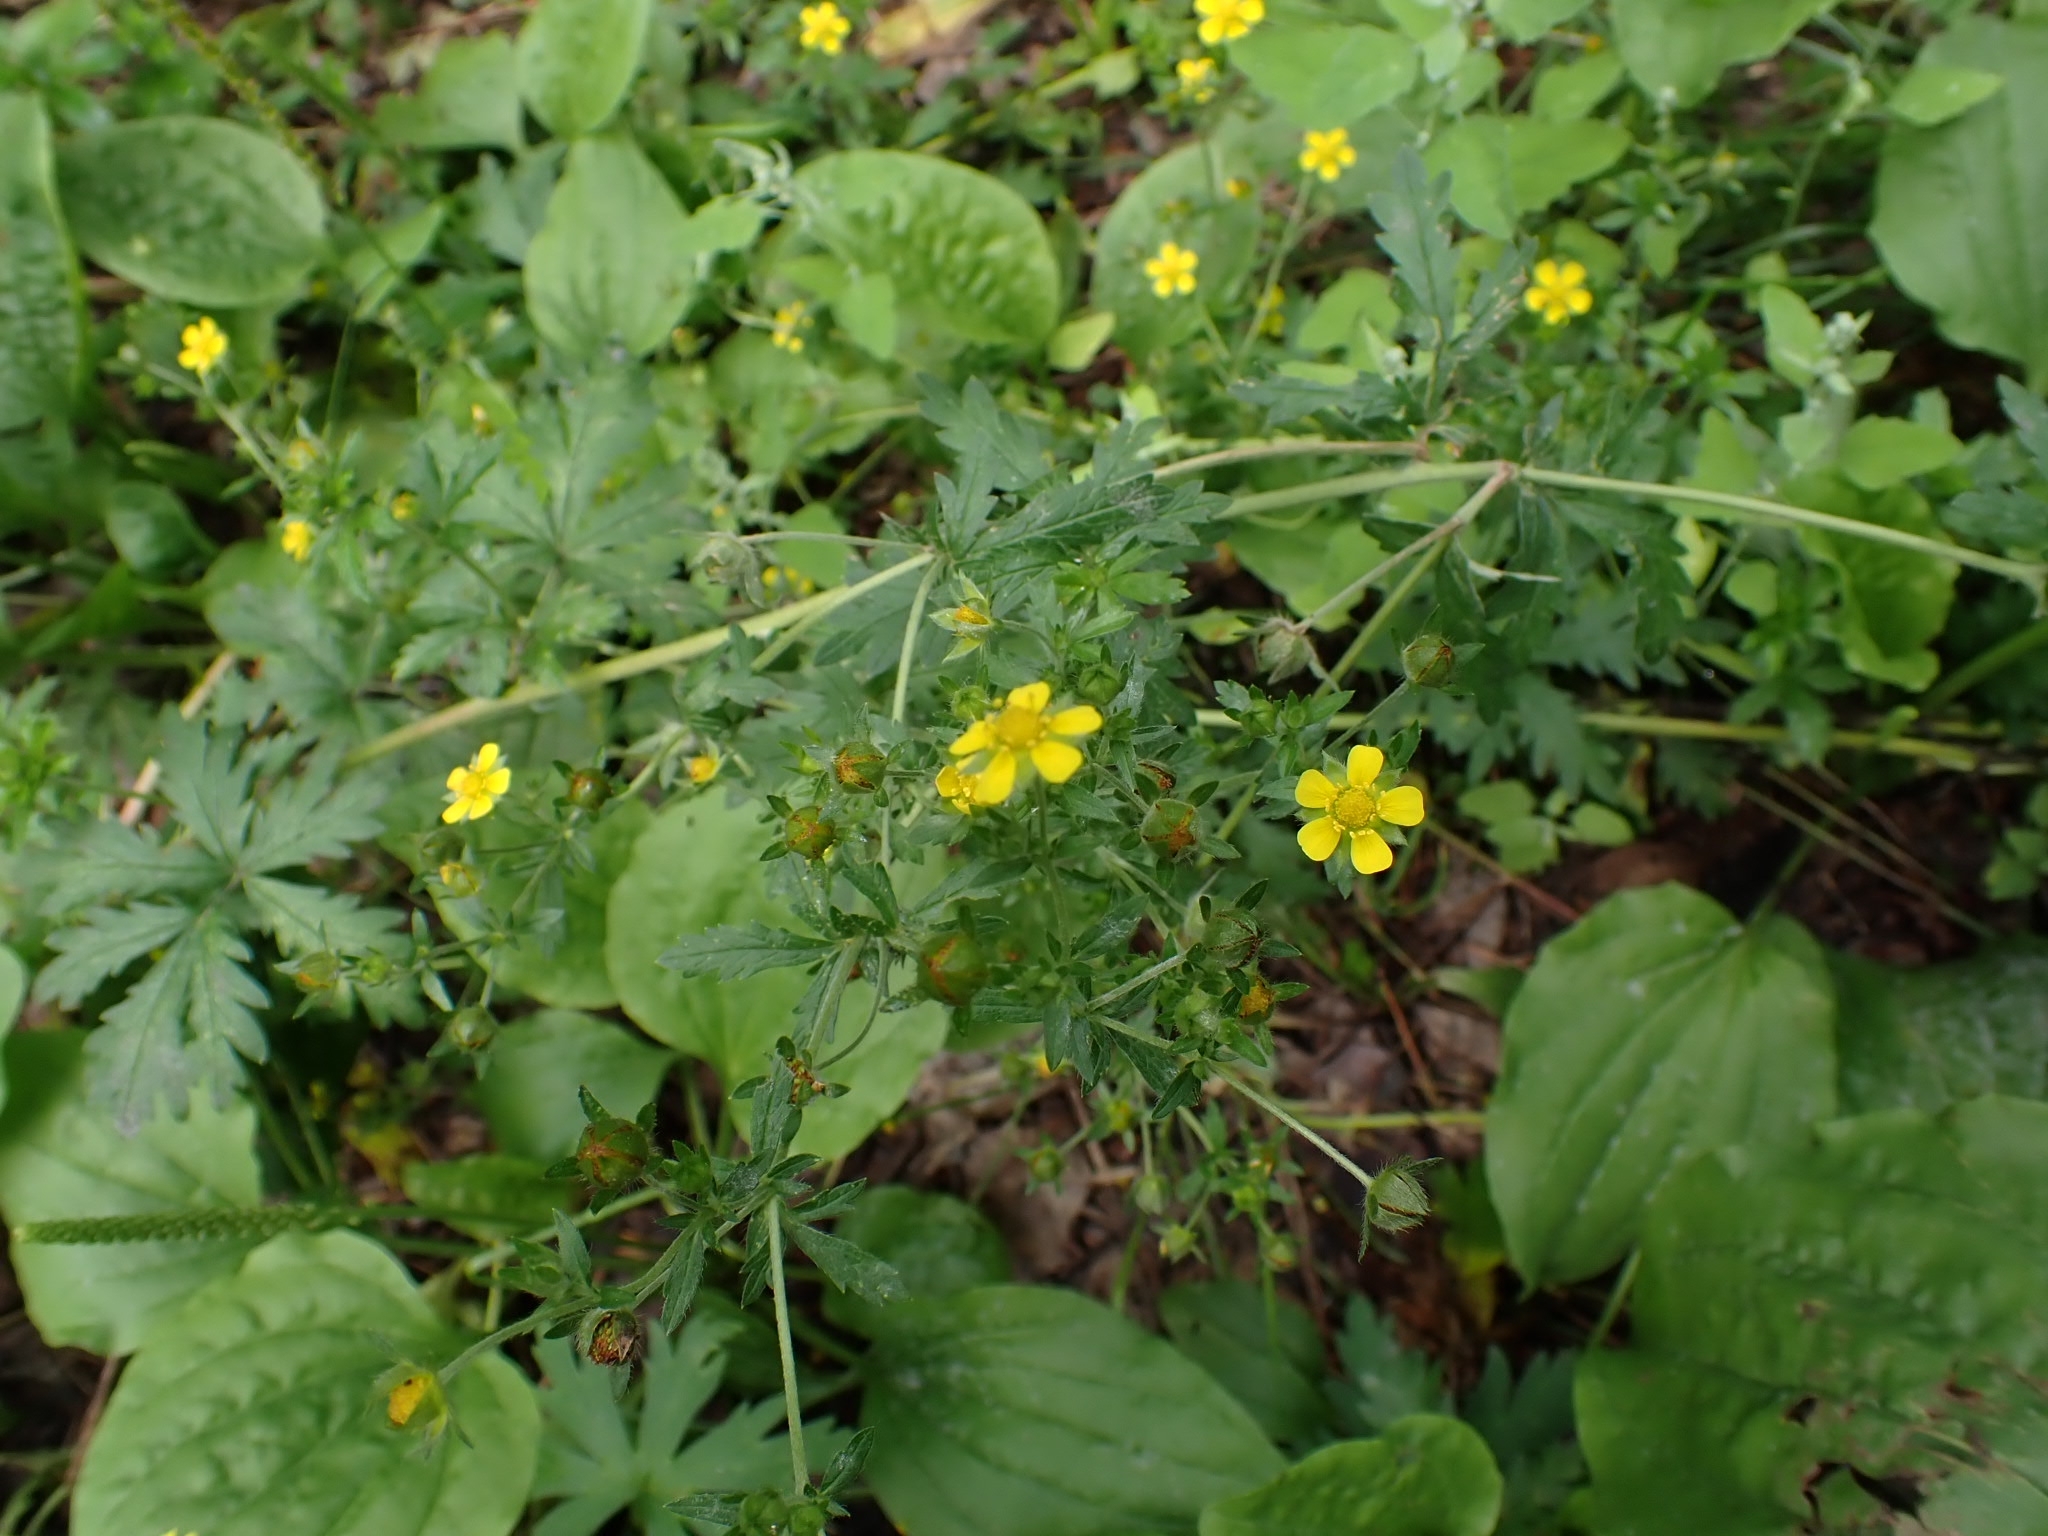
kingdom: Plantae
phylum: Tracheophyta
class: Magnoliopsida
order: Rosales
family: Rosaceae
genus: Potentilla
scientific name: Potentilla argentea
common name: Hoary cinquefoil
